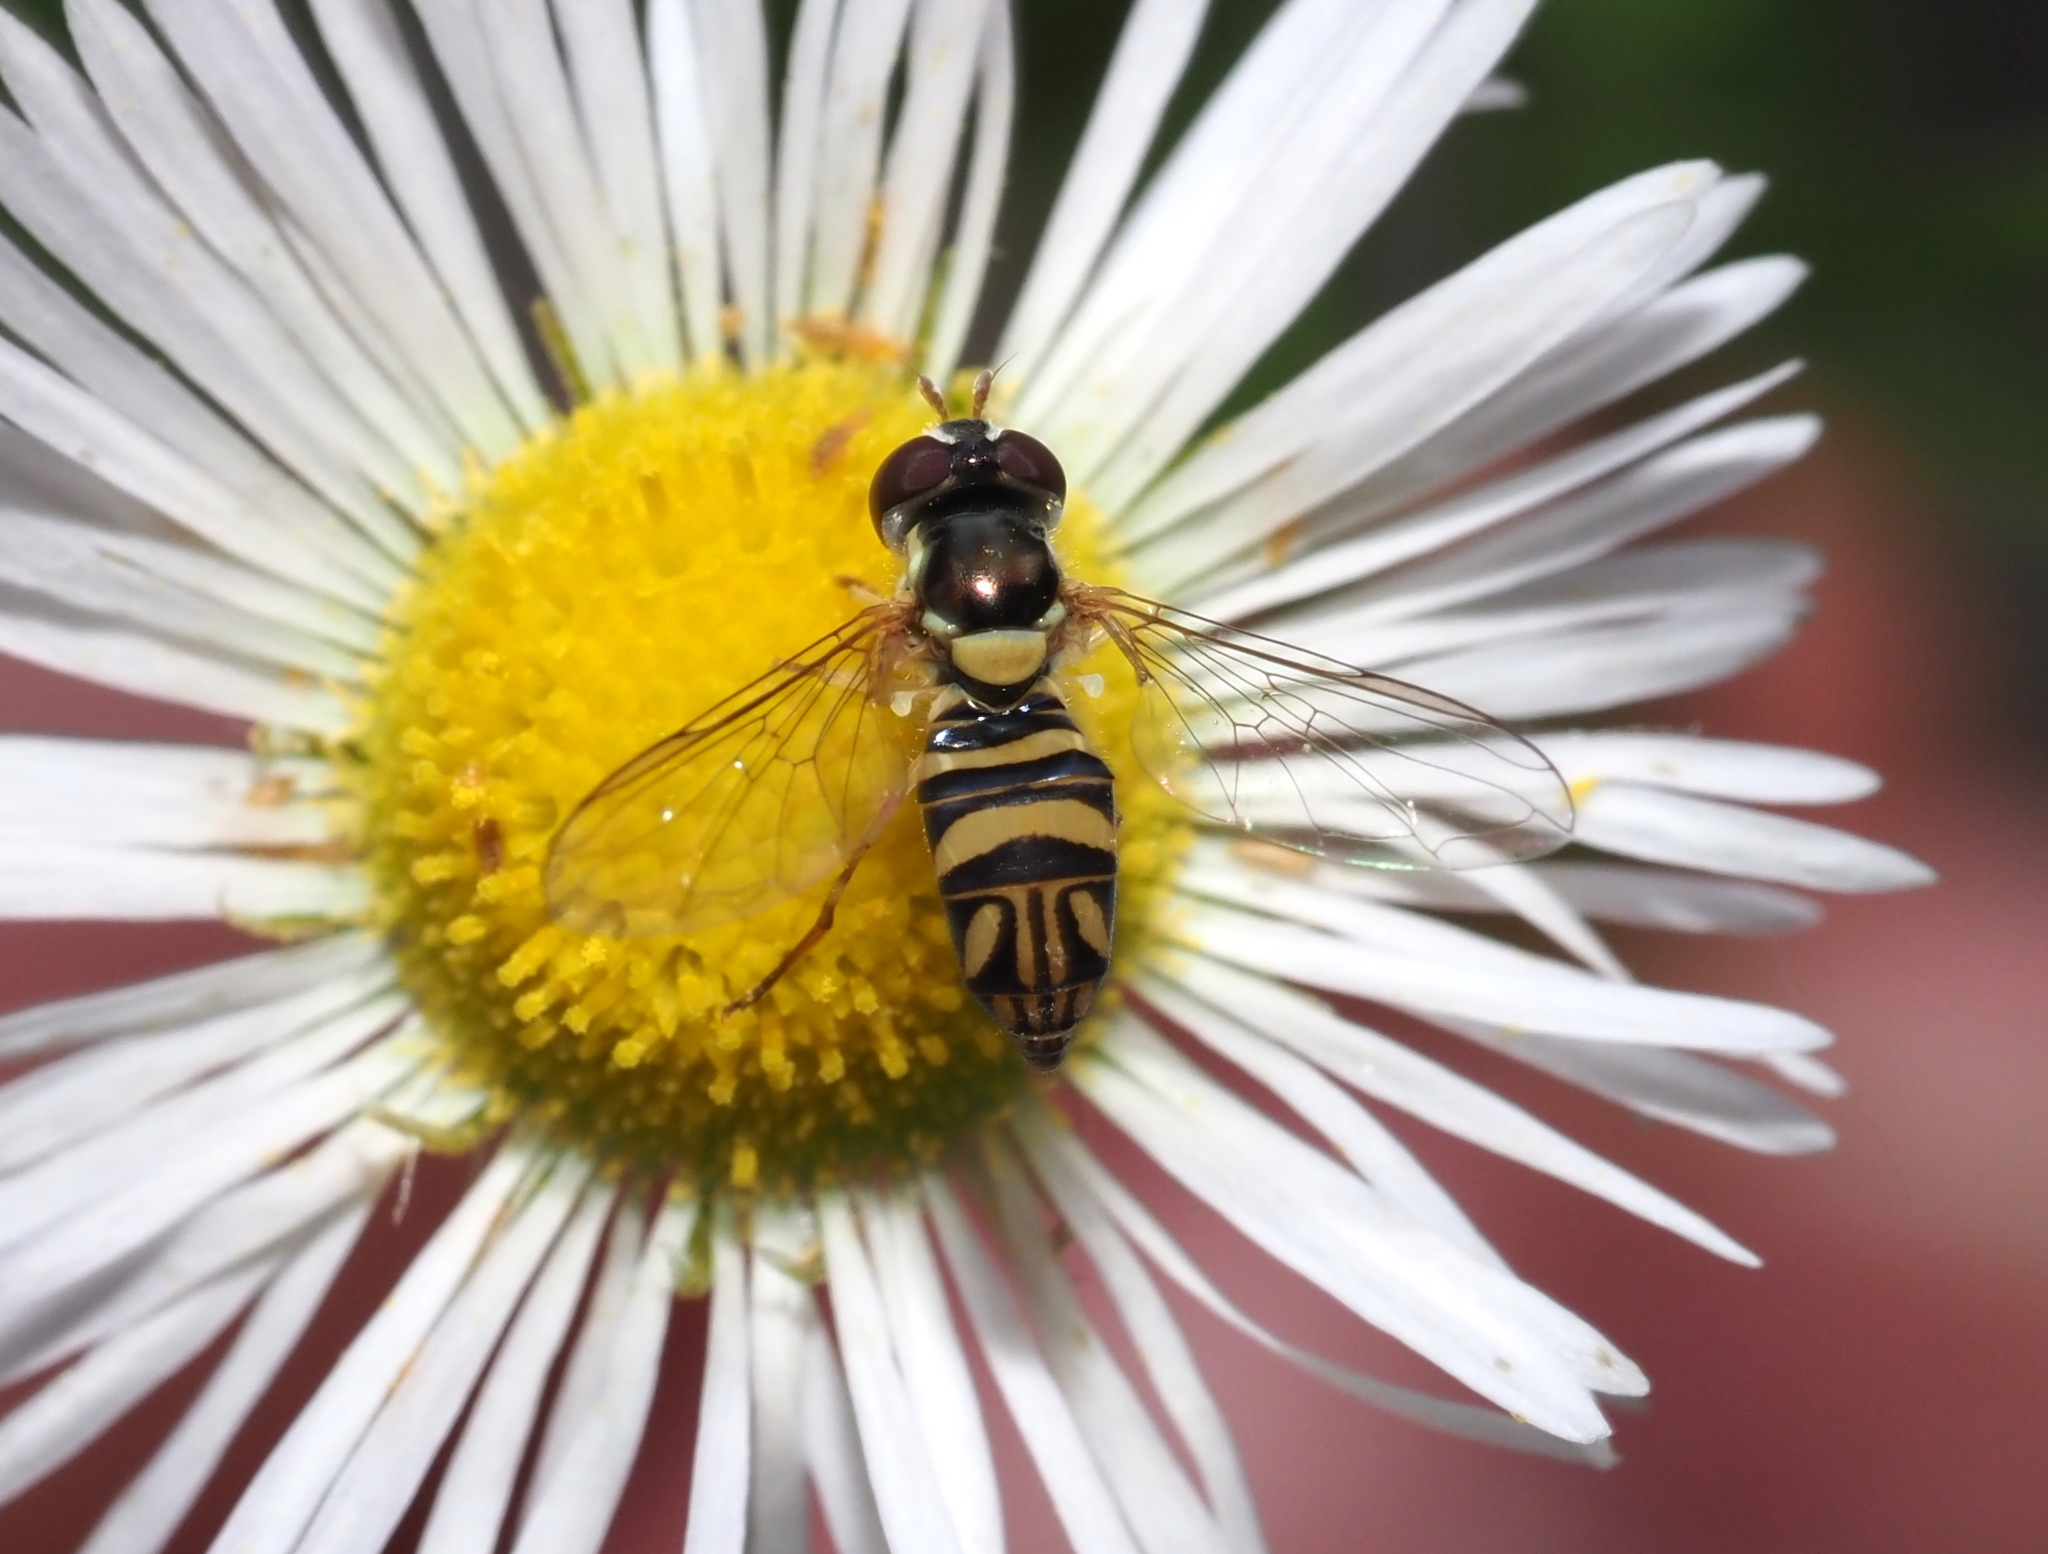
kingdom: Animalia
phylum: Arthropoda
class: Insecta
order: Diptera
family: Syrphidae
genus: Allograpta
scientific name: Allograpta obliqua
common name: Common oblique syrphid
